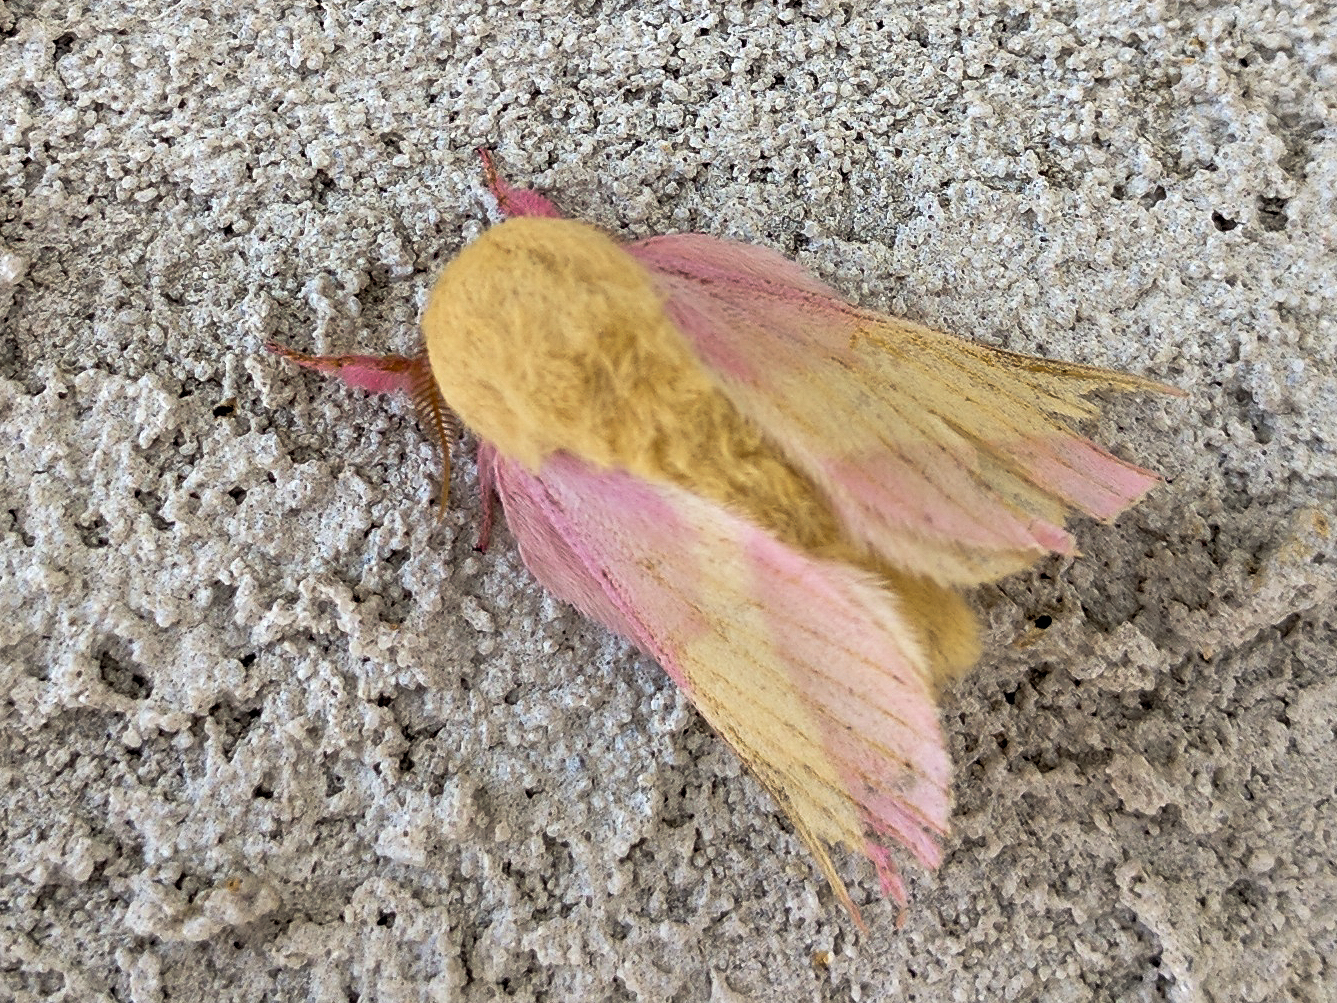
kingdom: Animalia
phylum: Arthropoda
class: Insecta
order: Lepidoptera
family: Saturniidae
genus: Dryocampa
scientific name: Dryocampa rubicunda
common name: Rosy maple moth
